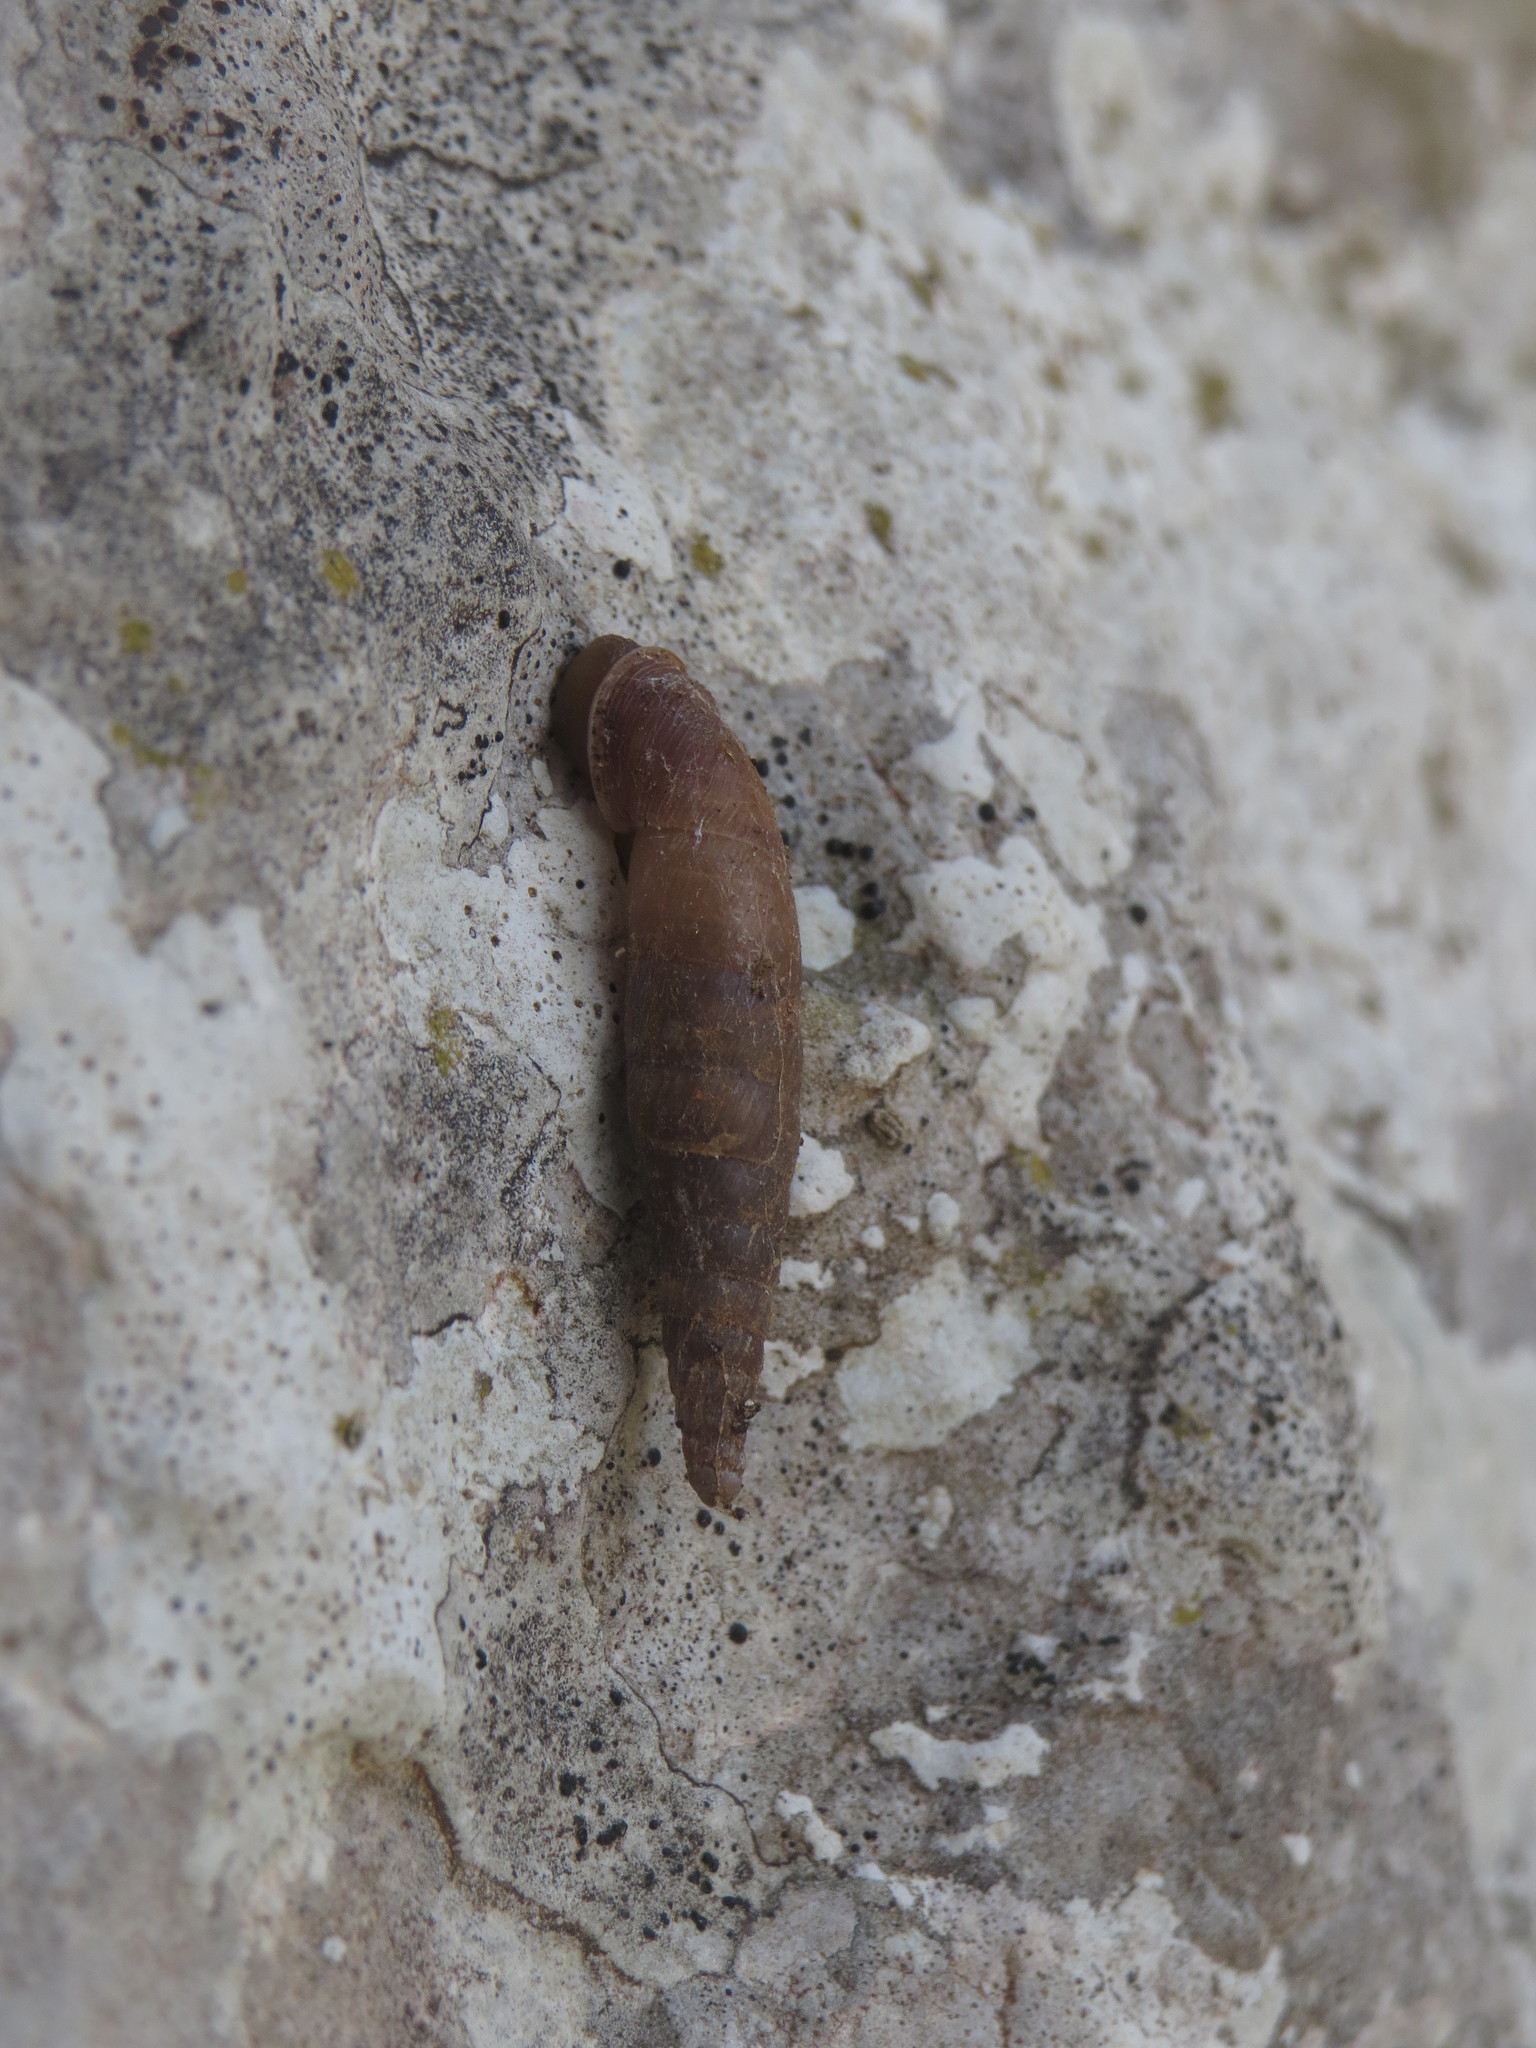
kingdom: Animalia
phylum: Mollusca
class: Gastropoda
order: Stylommatophora
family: Clausiliidae
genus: Cochlodina
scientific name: Cochlodina kuesteri
